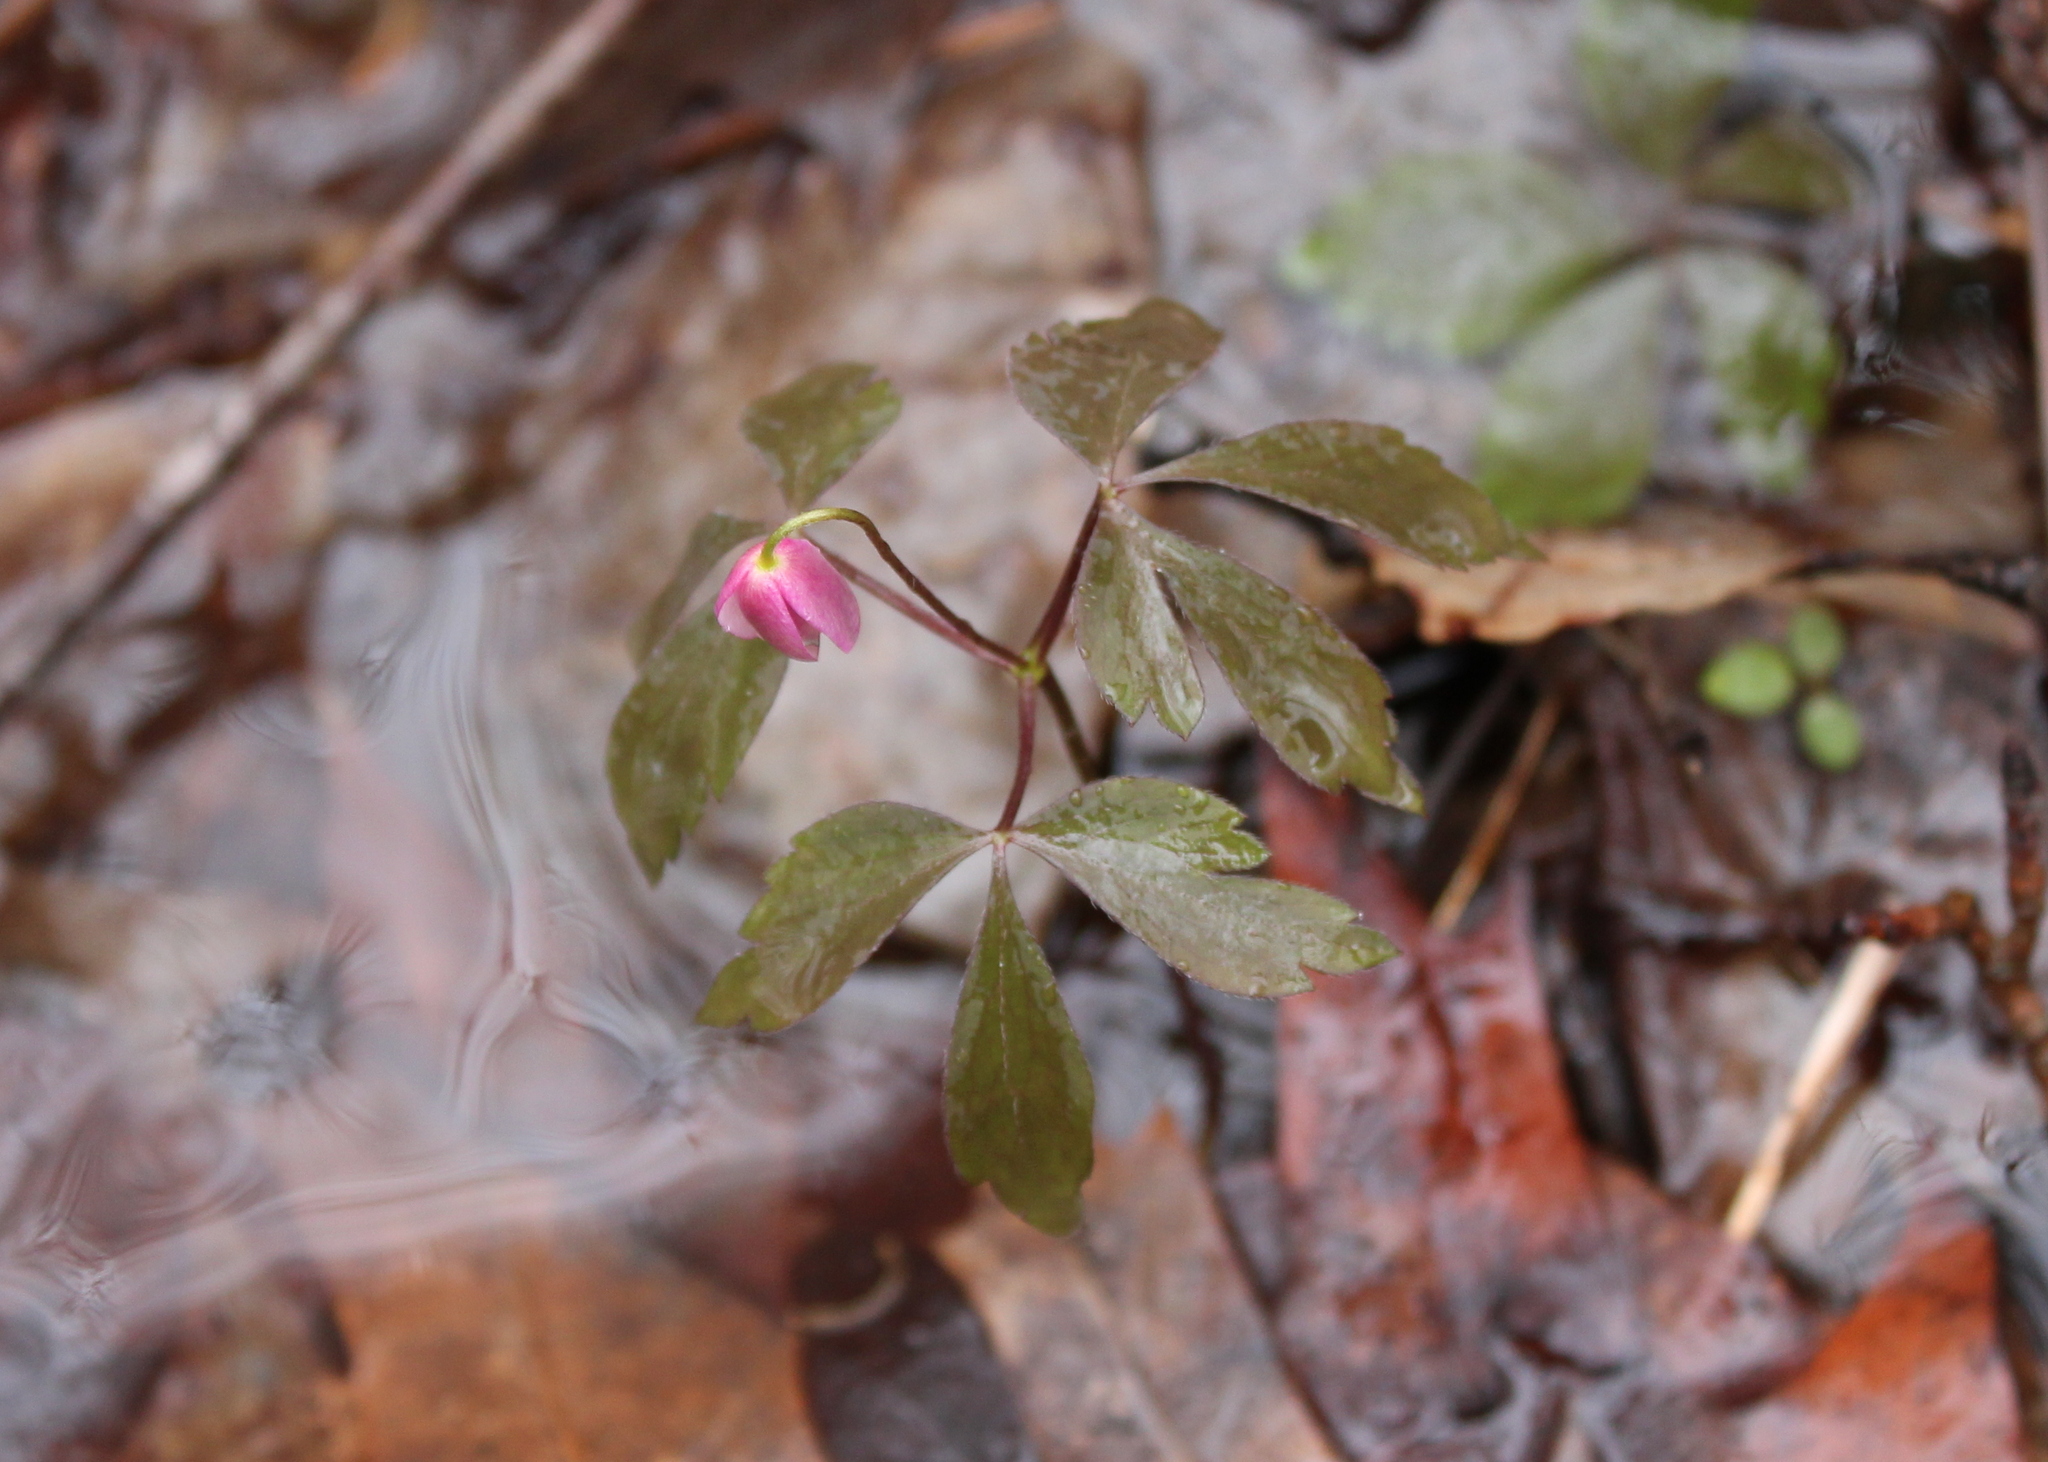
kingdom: Plantae
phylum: Tracheophyta
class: Magnoliopsida
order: Ranunculales
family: Ranunculaceae
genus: Anemone
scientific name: Anemone quinquefolia
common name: Wood anemone
